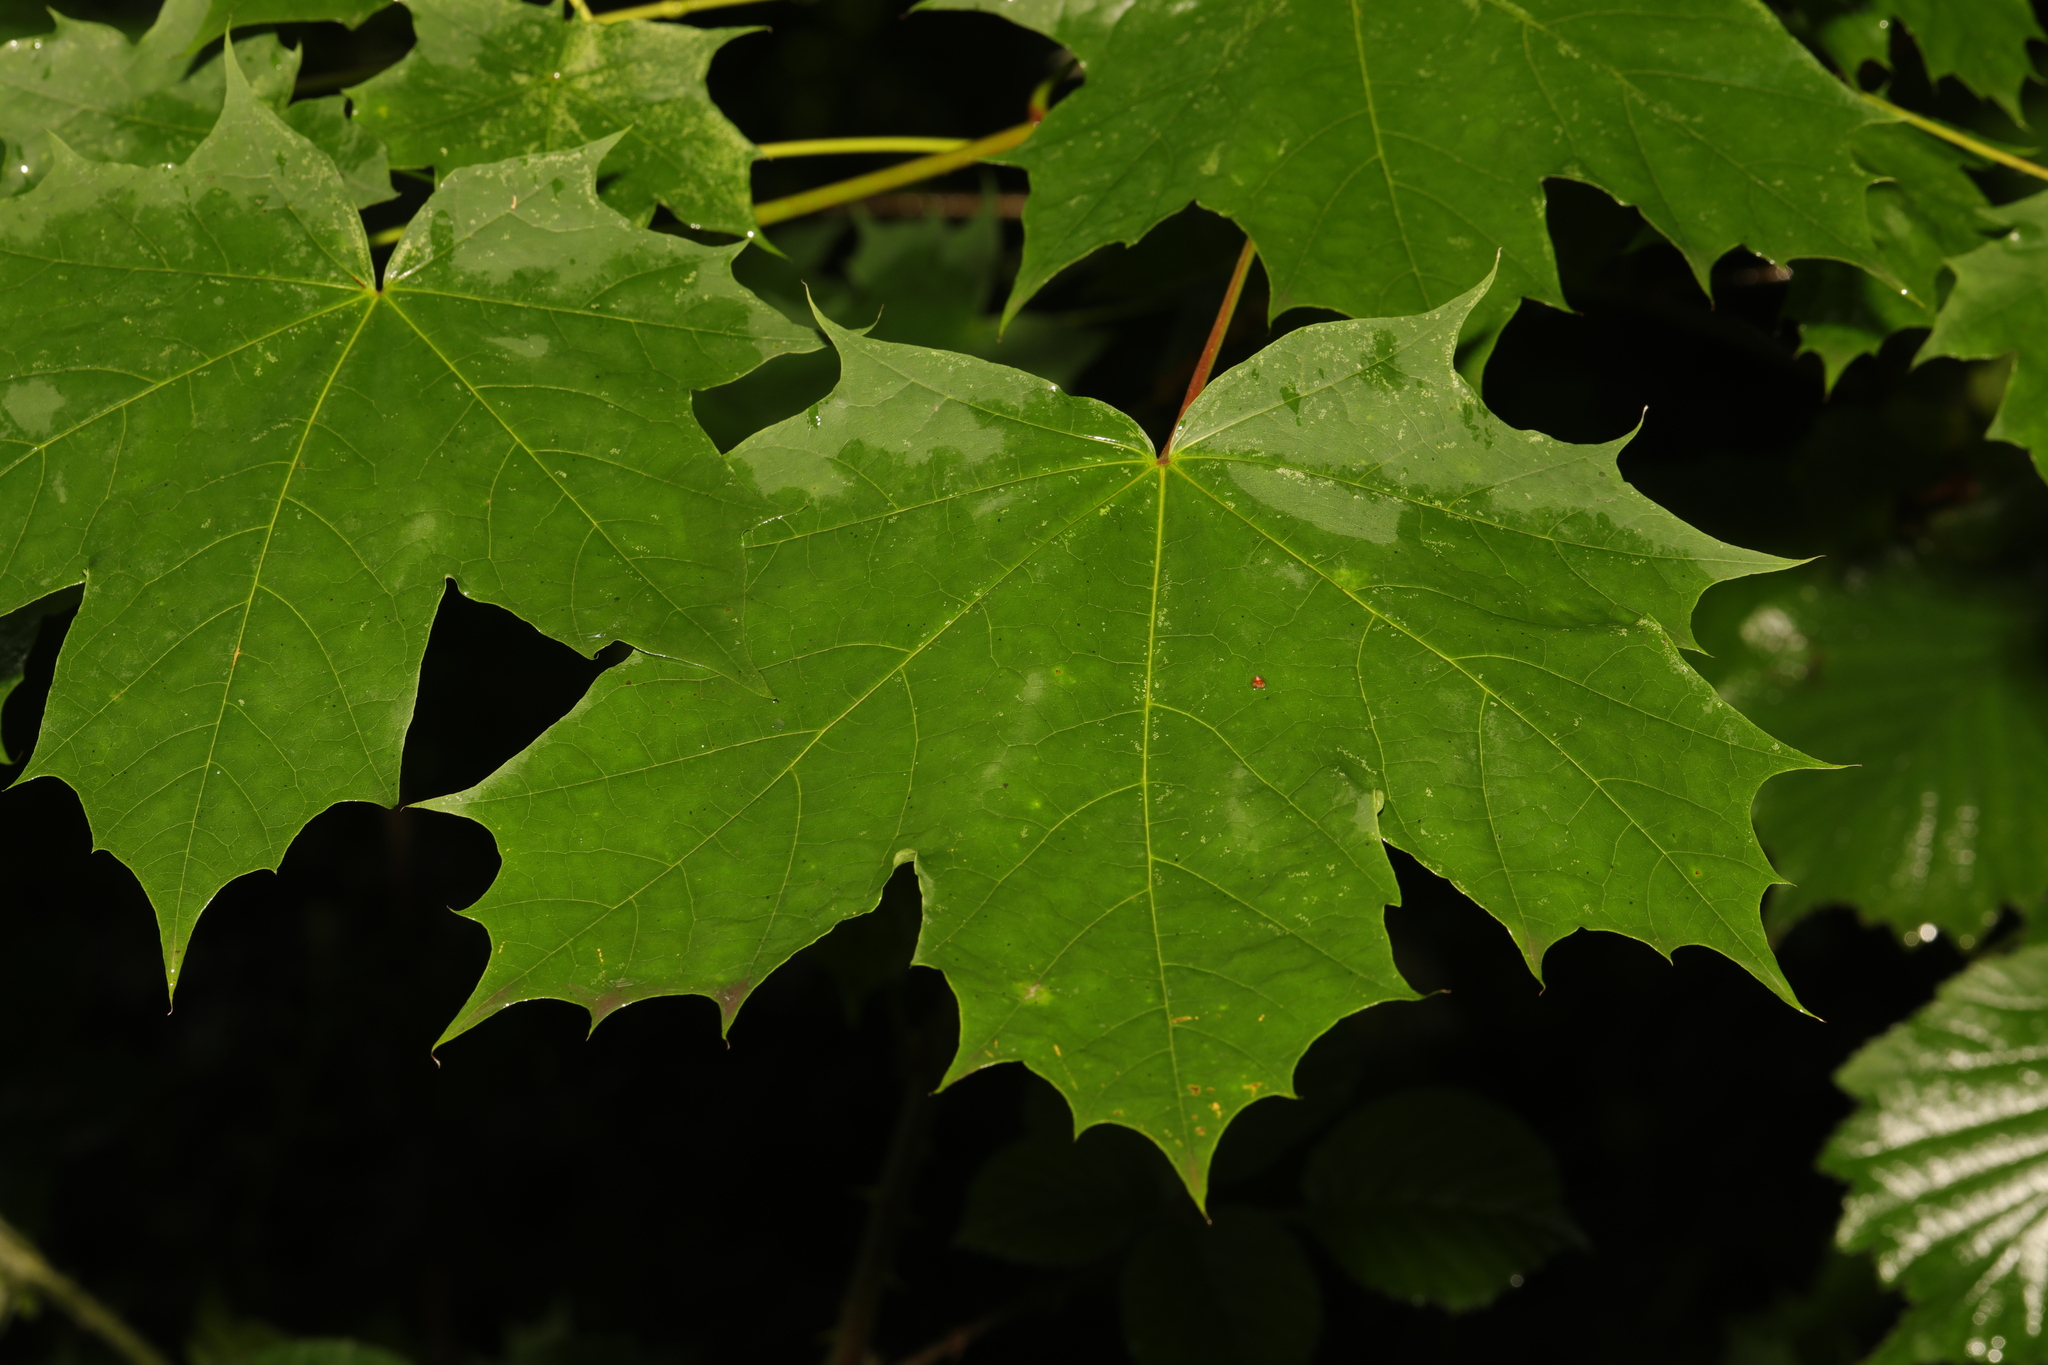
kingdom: Plantae
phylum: Tracheophyta
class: Magnoliopsida
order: Sapindales
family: Sapindaceae
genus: Acer
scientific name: Acer platanoides
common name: Norway maple
